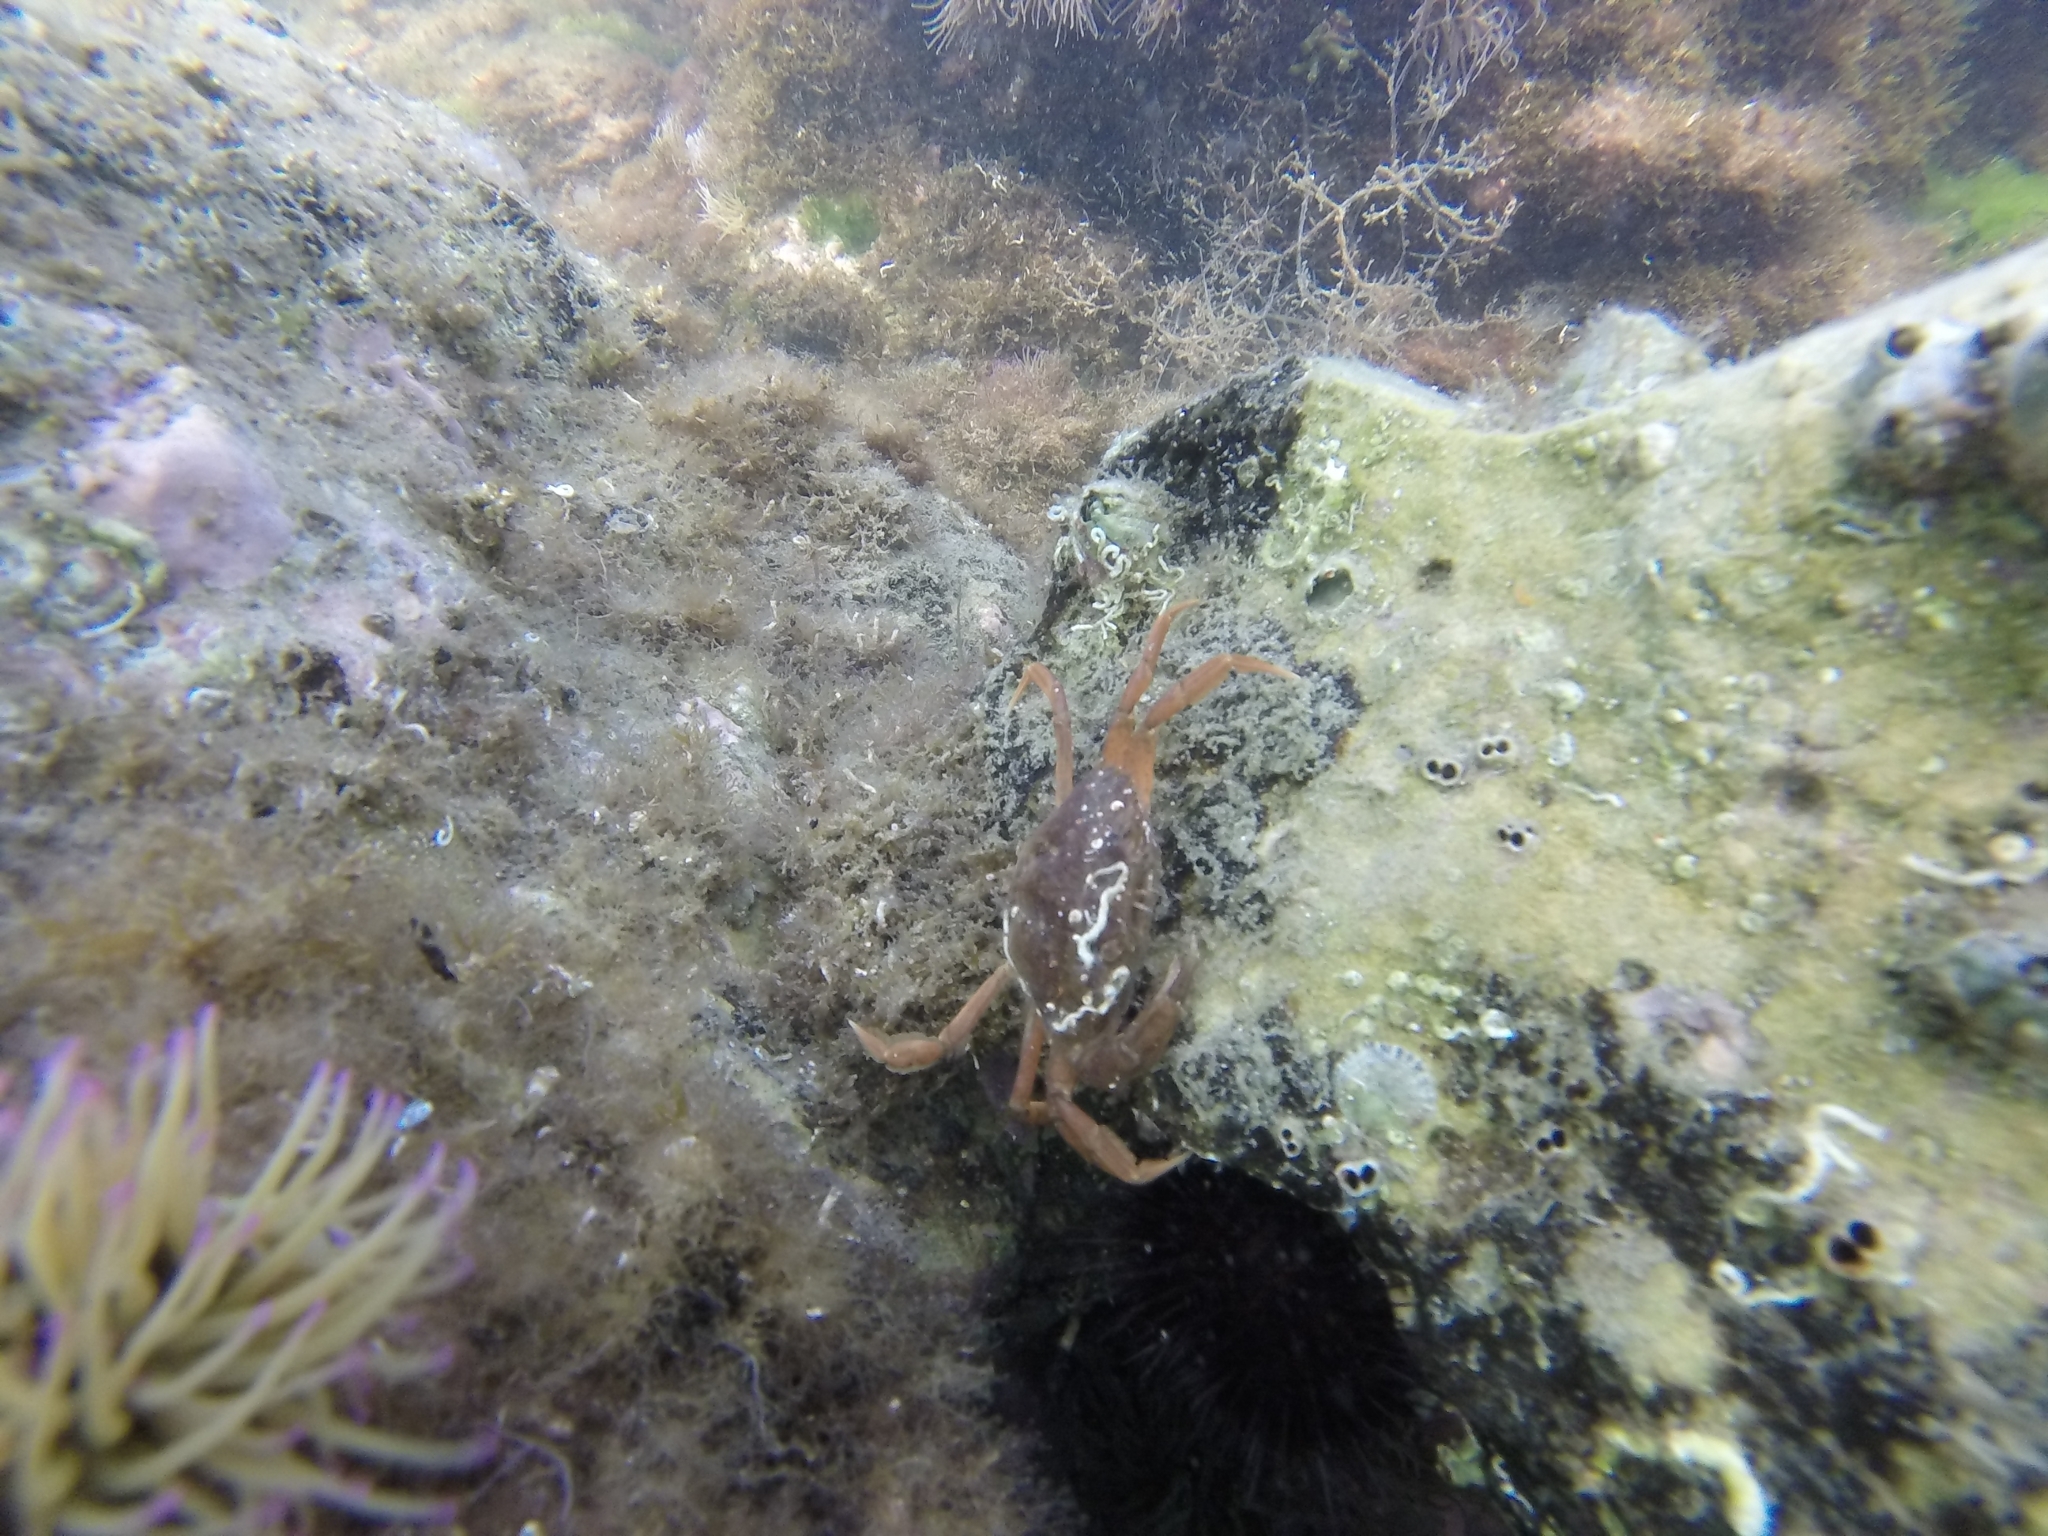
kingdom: Animalia
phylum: Arthropoda
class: Malacostraca
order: Decapoda
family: Carcinidae
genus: Carcinus
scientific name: Carcinus aestuarii
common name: Mediterranean green crab
